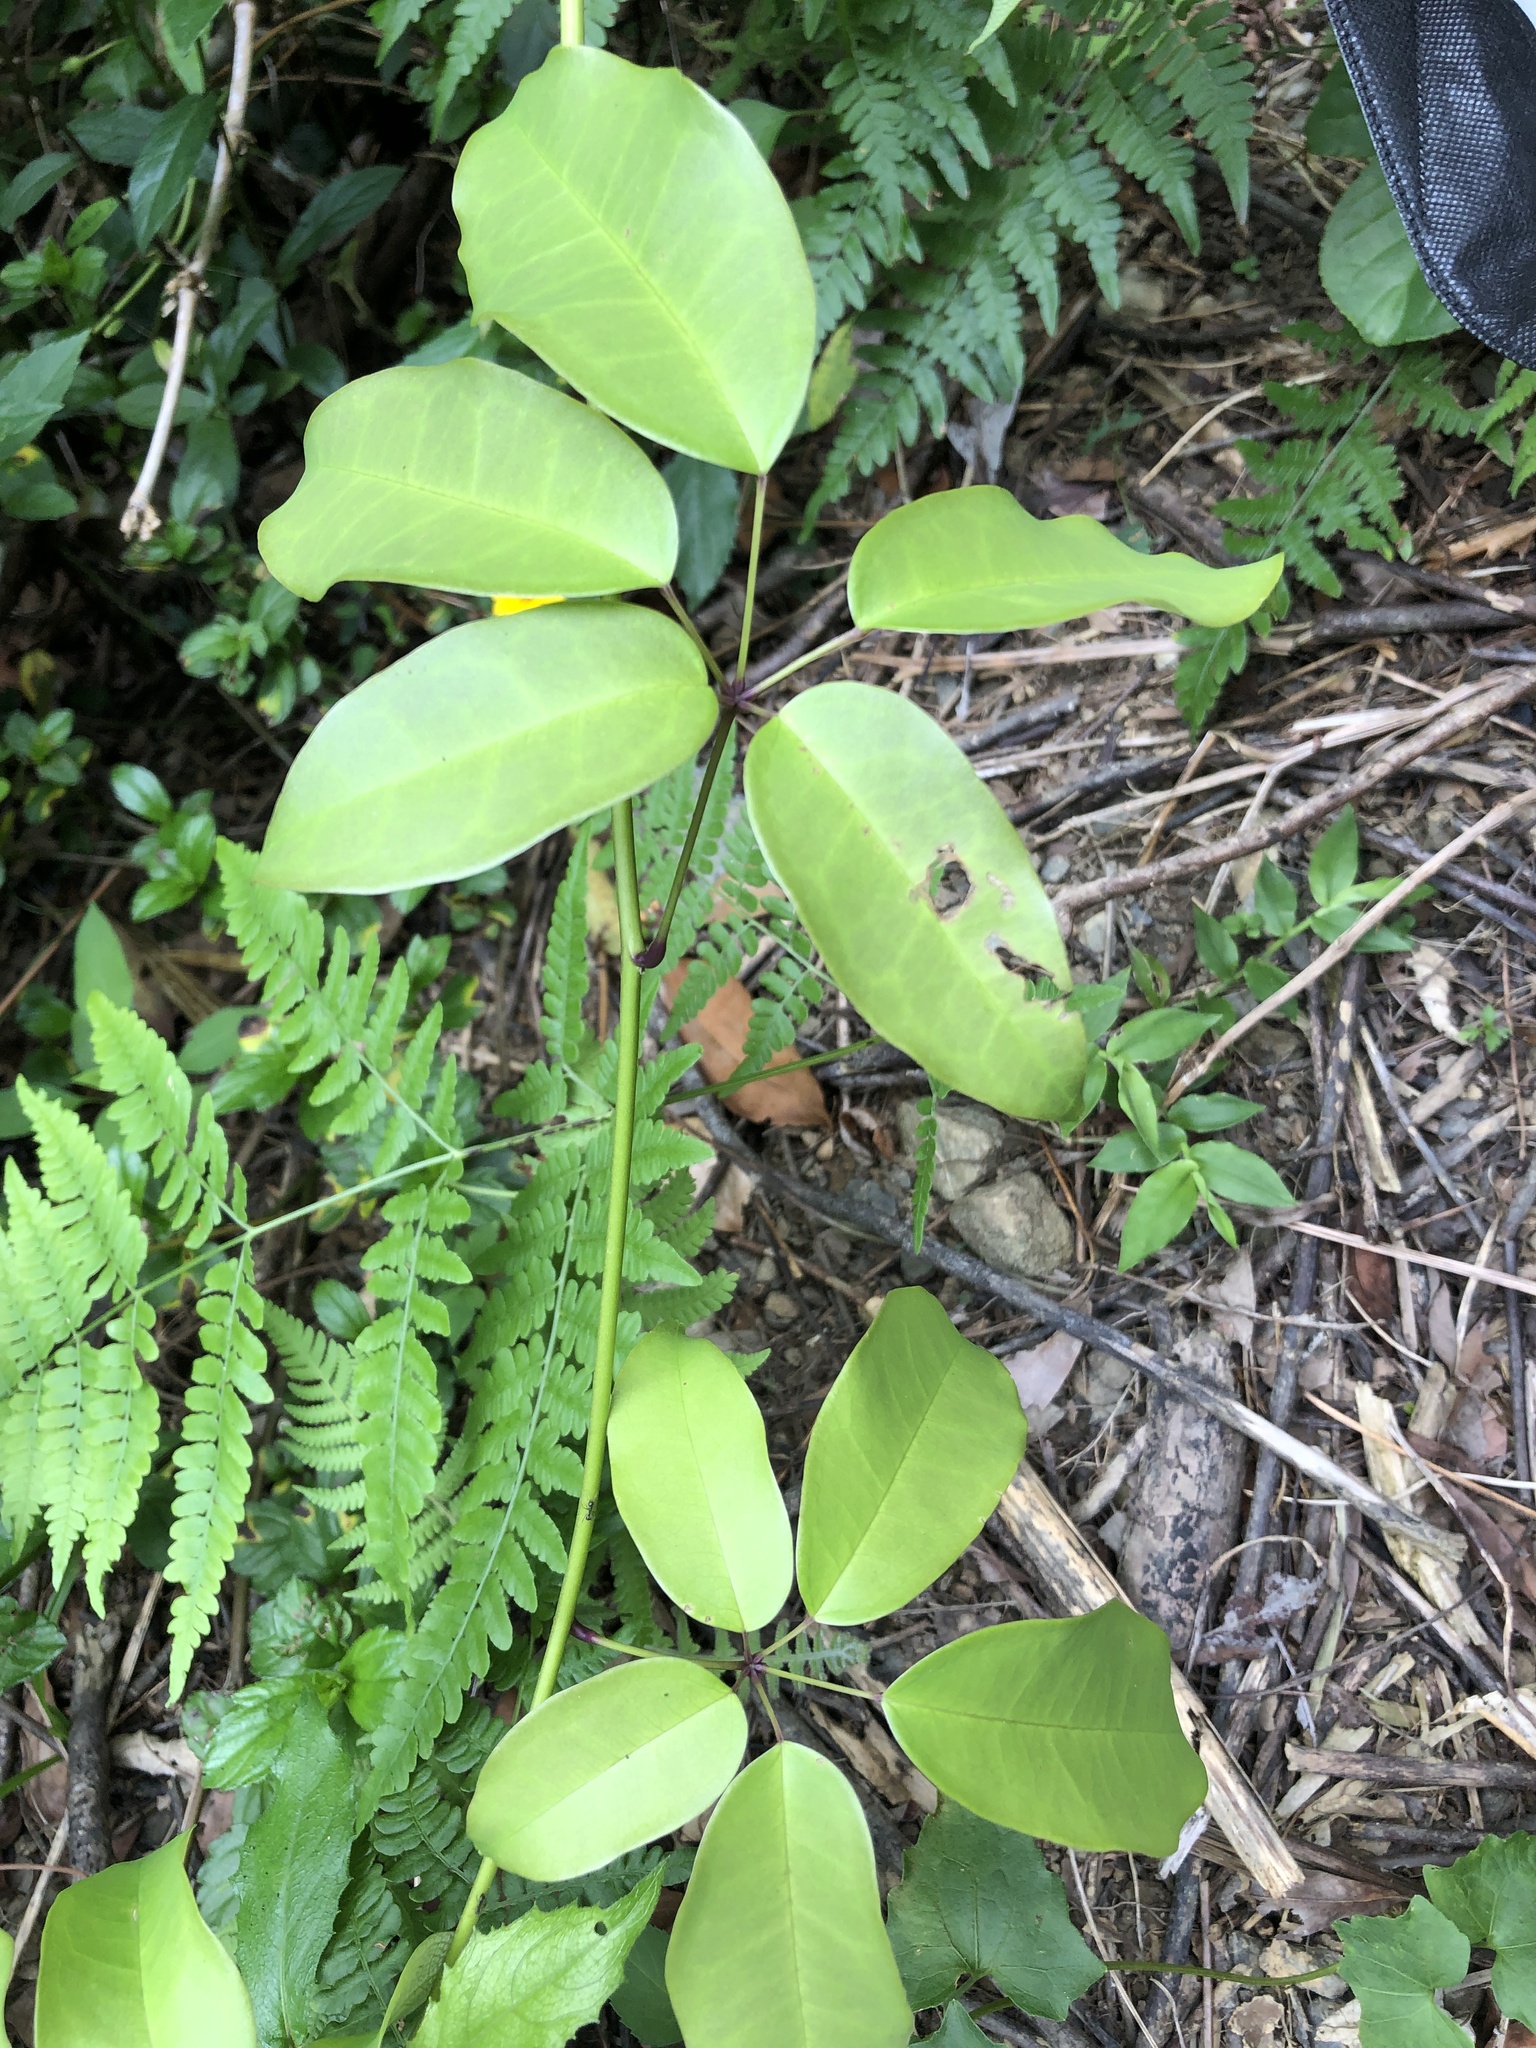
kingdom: Plantae
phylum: Tracheophyta
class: Magnoliopsida
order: Ranunculales
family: Lardizabalaceae
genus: Stauntonia
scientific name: Stauntonia obovata
